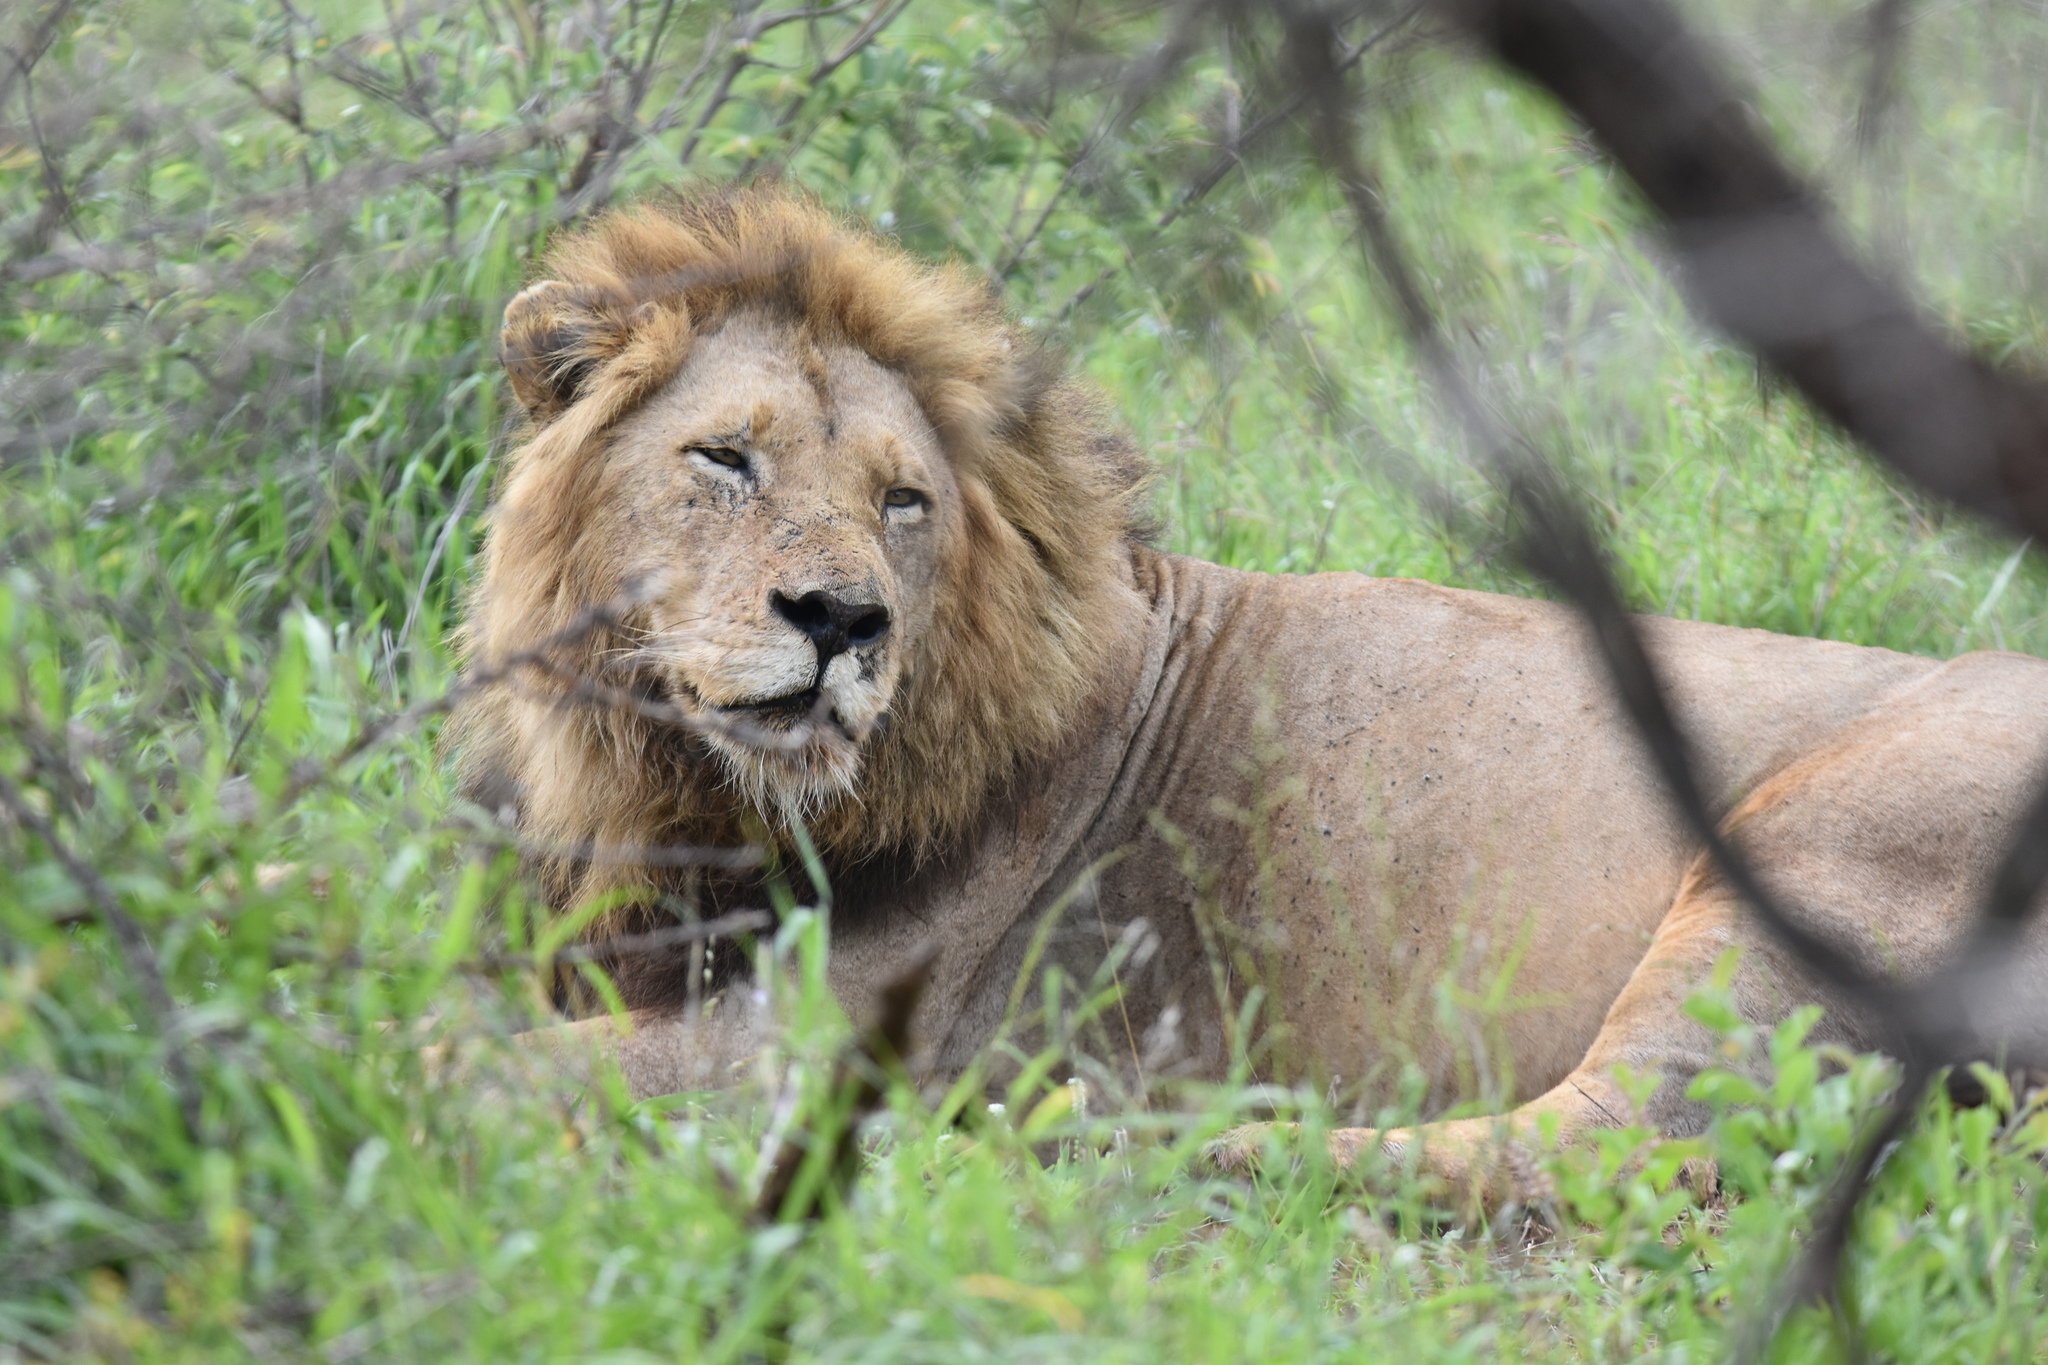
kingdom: Animalia
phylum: Chordata
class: Mammalia
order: Carnivora
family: Felidae
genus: Panthera
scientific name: Panthera leo
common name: Lion
